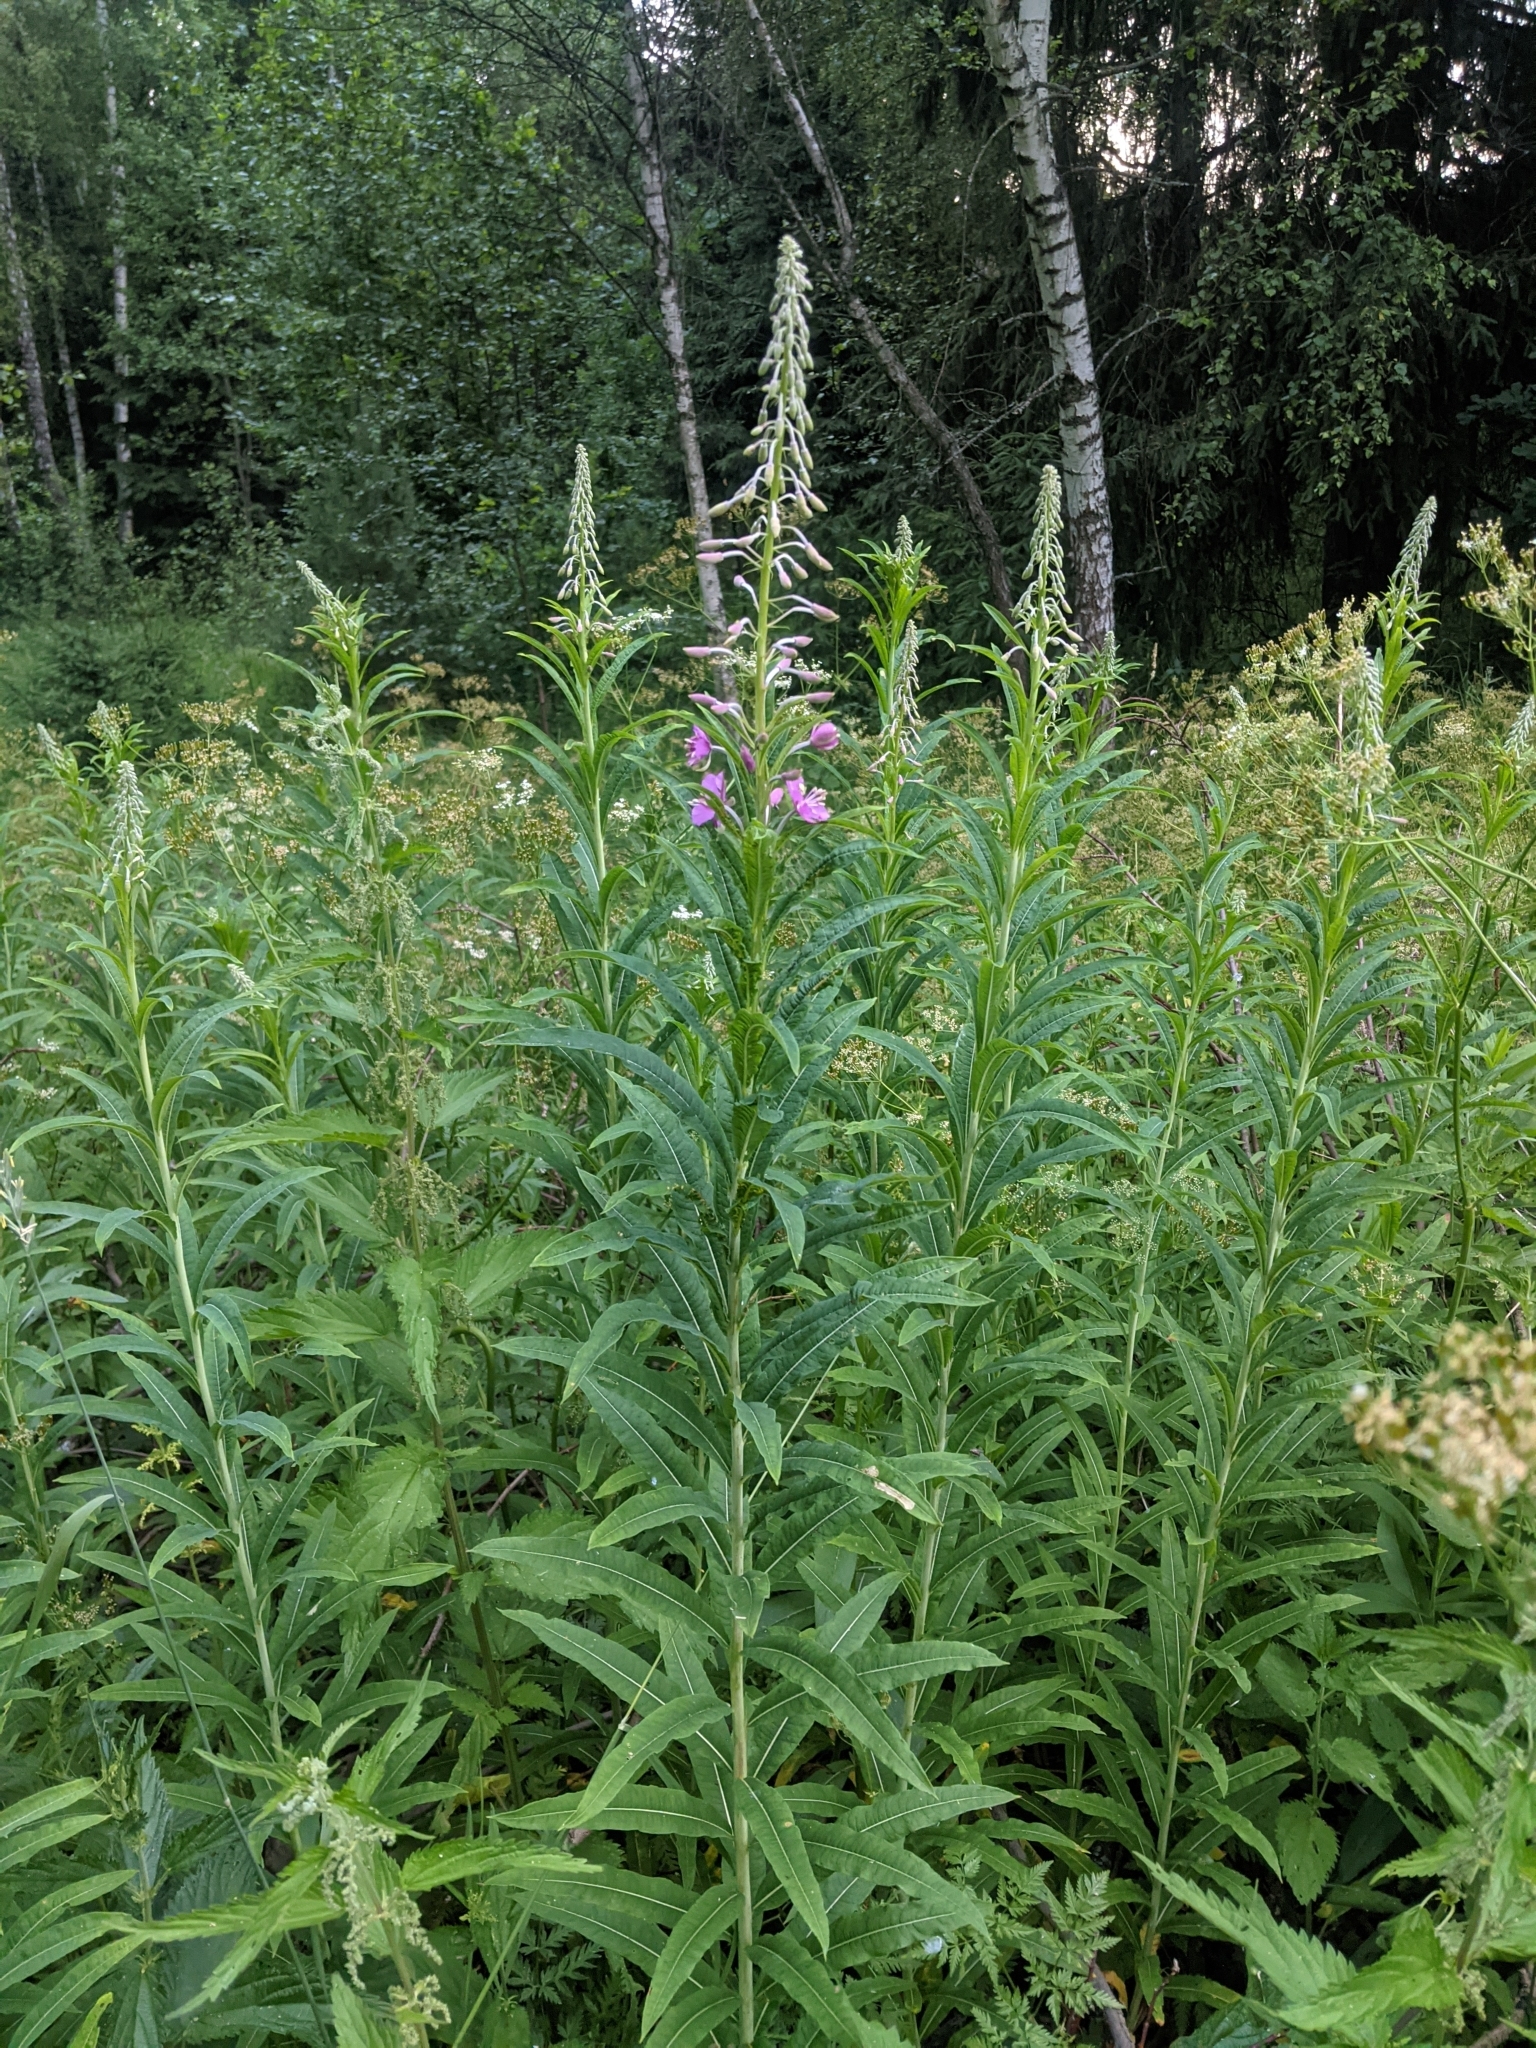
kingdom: Plantae
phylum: Tracheophyta
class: Magnoliopsida
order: Myrtales
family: Onagraceae
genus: Chamaenerion
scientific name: Chamaenerion angustifolium
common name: Fireweed
